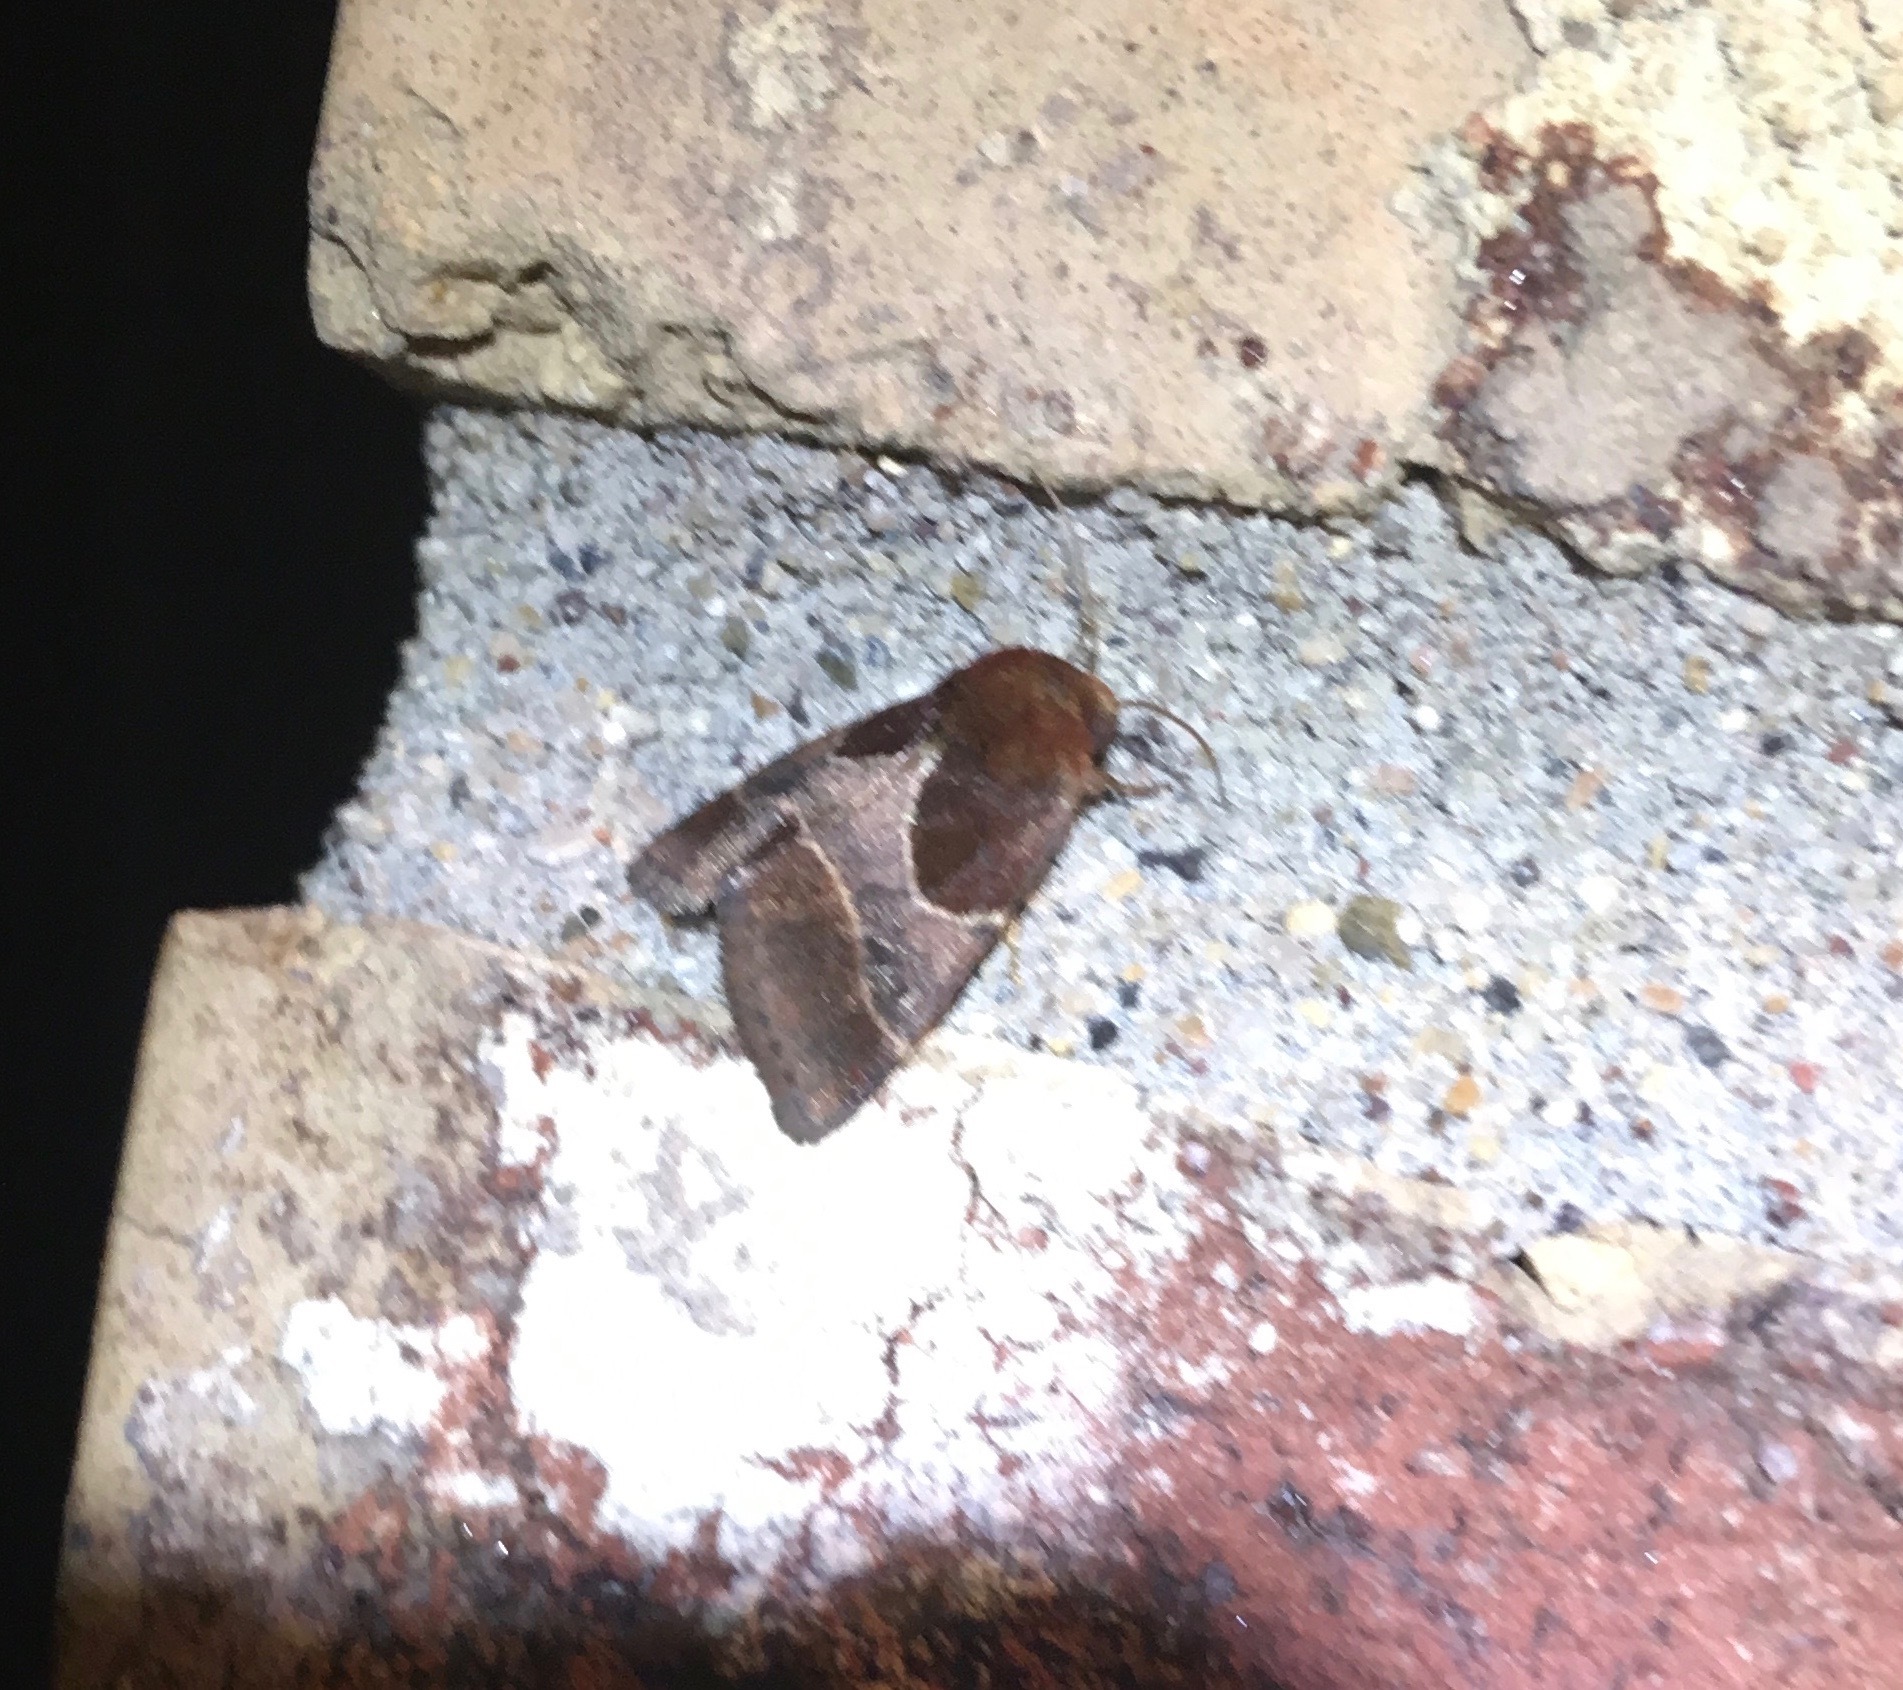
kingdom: Animalia
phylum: Arthropoda
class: Insecta
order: Lepidoptera
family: Noctuidae
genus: Schinia
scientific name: Schinia arcigera
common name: Arcigera flower moth
